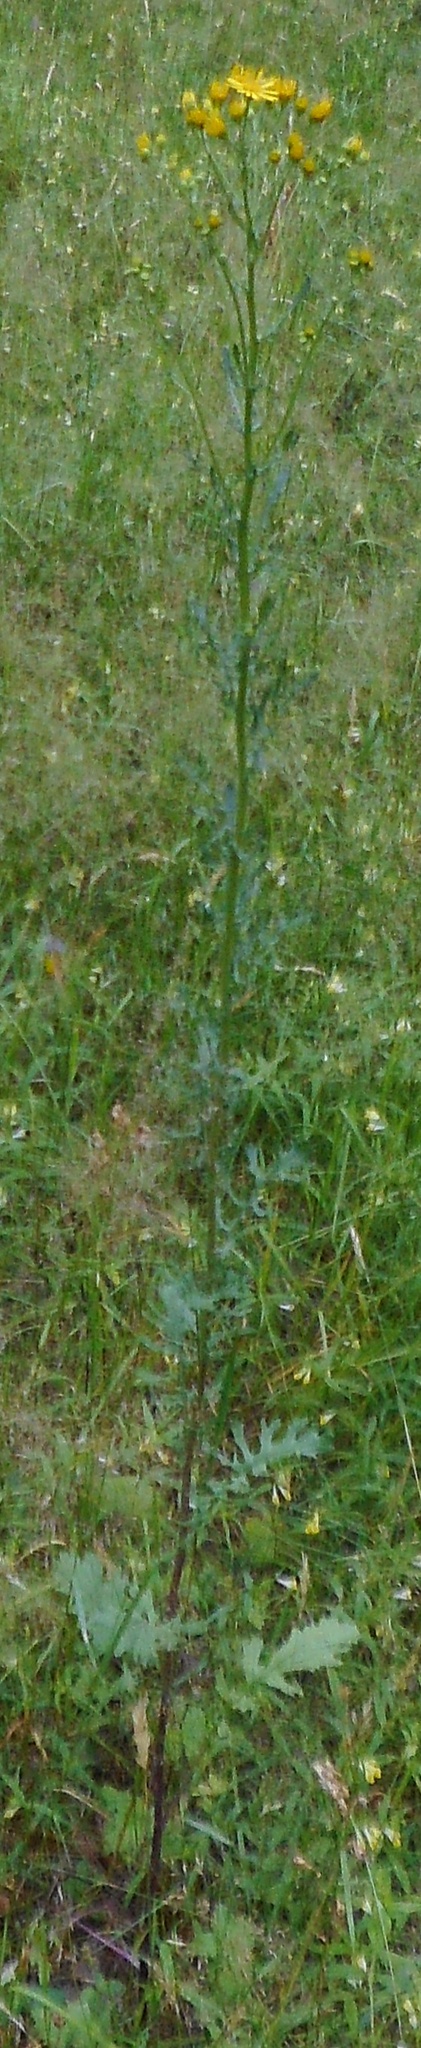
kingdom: Plantae
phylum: Tracheophyta
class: Magnoliopsida
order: Asterales
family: Asteraceae
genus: Jacobaea
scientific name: Jacobaea vulgaris
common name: Stinking willie
